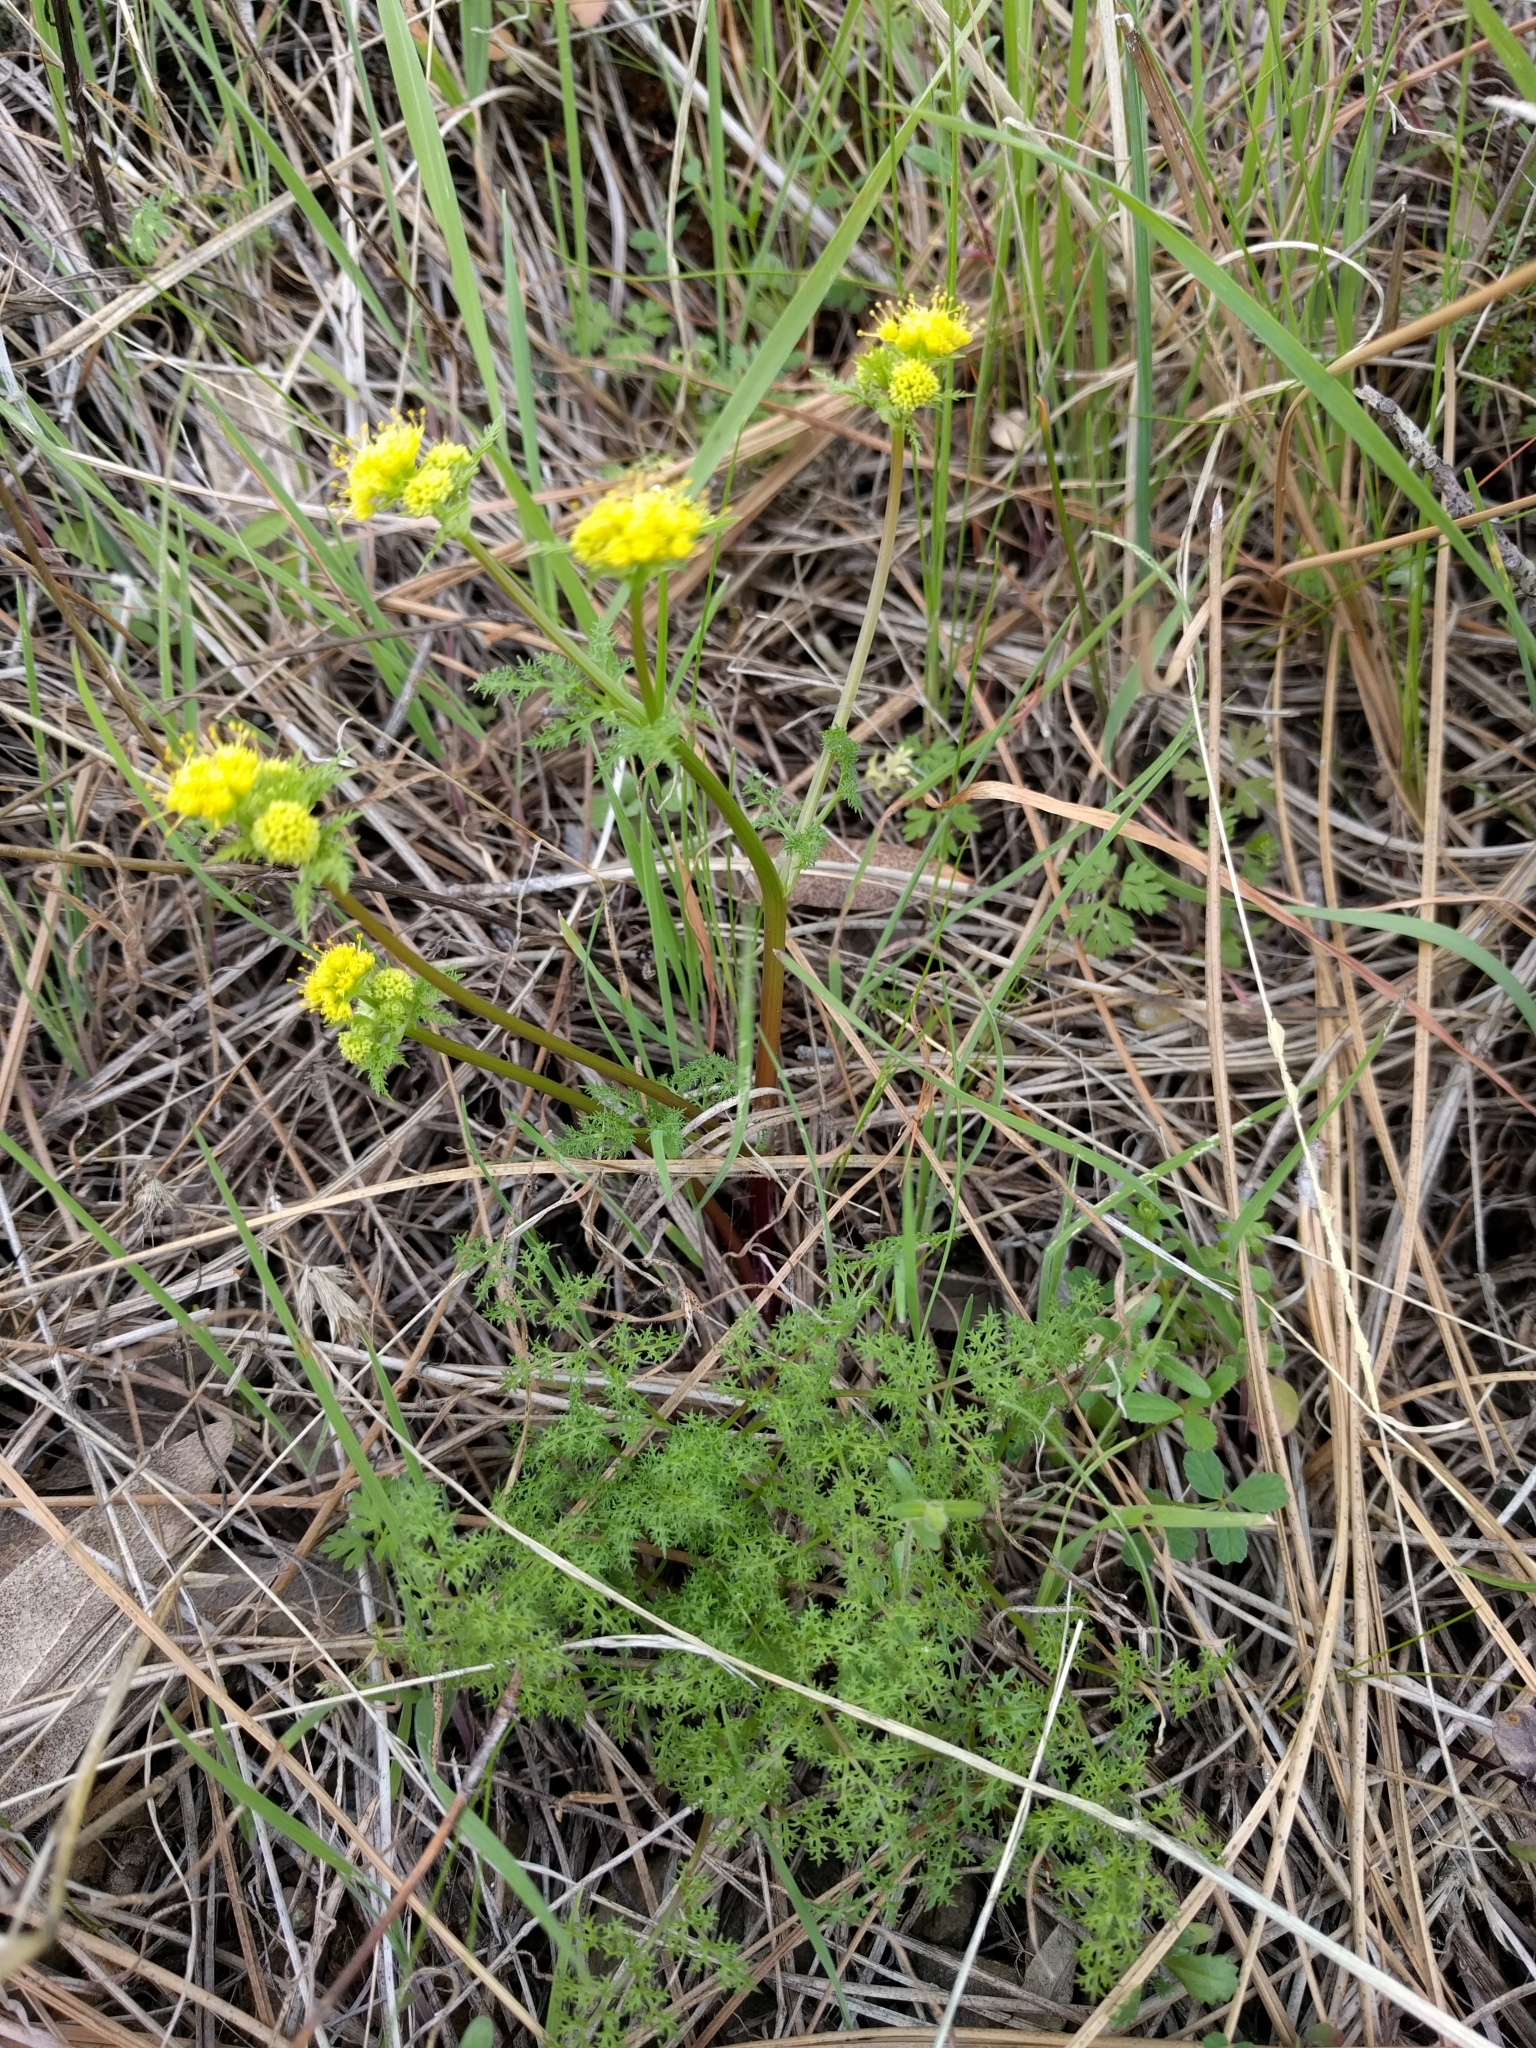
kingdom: Plantae
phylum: Tracheophyta
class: Magnoliopsida
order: Apiales
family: Apiaceae
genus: Sanicula
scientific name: Sanicula tuberosa
